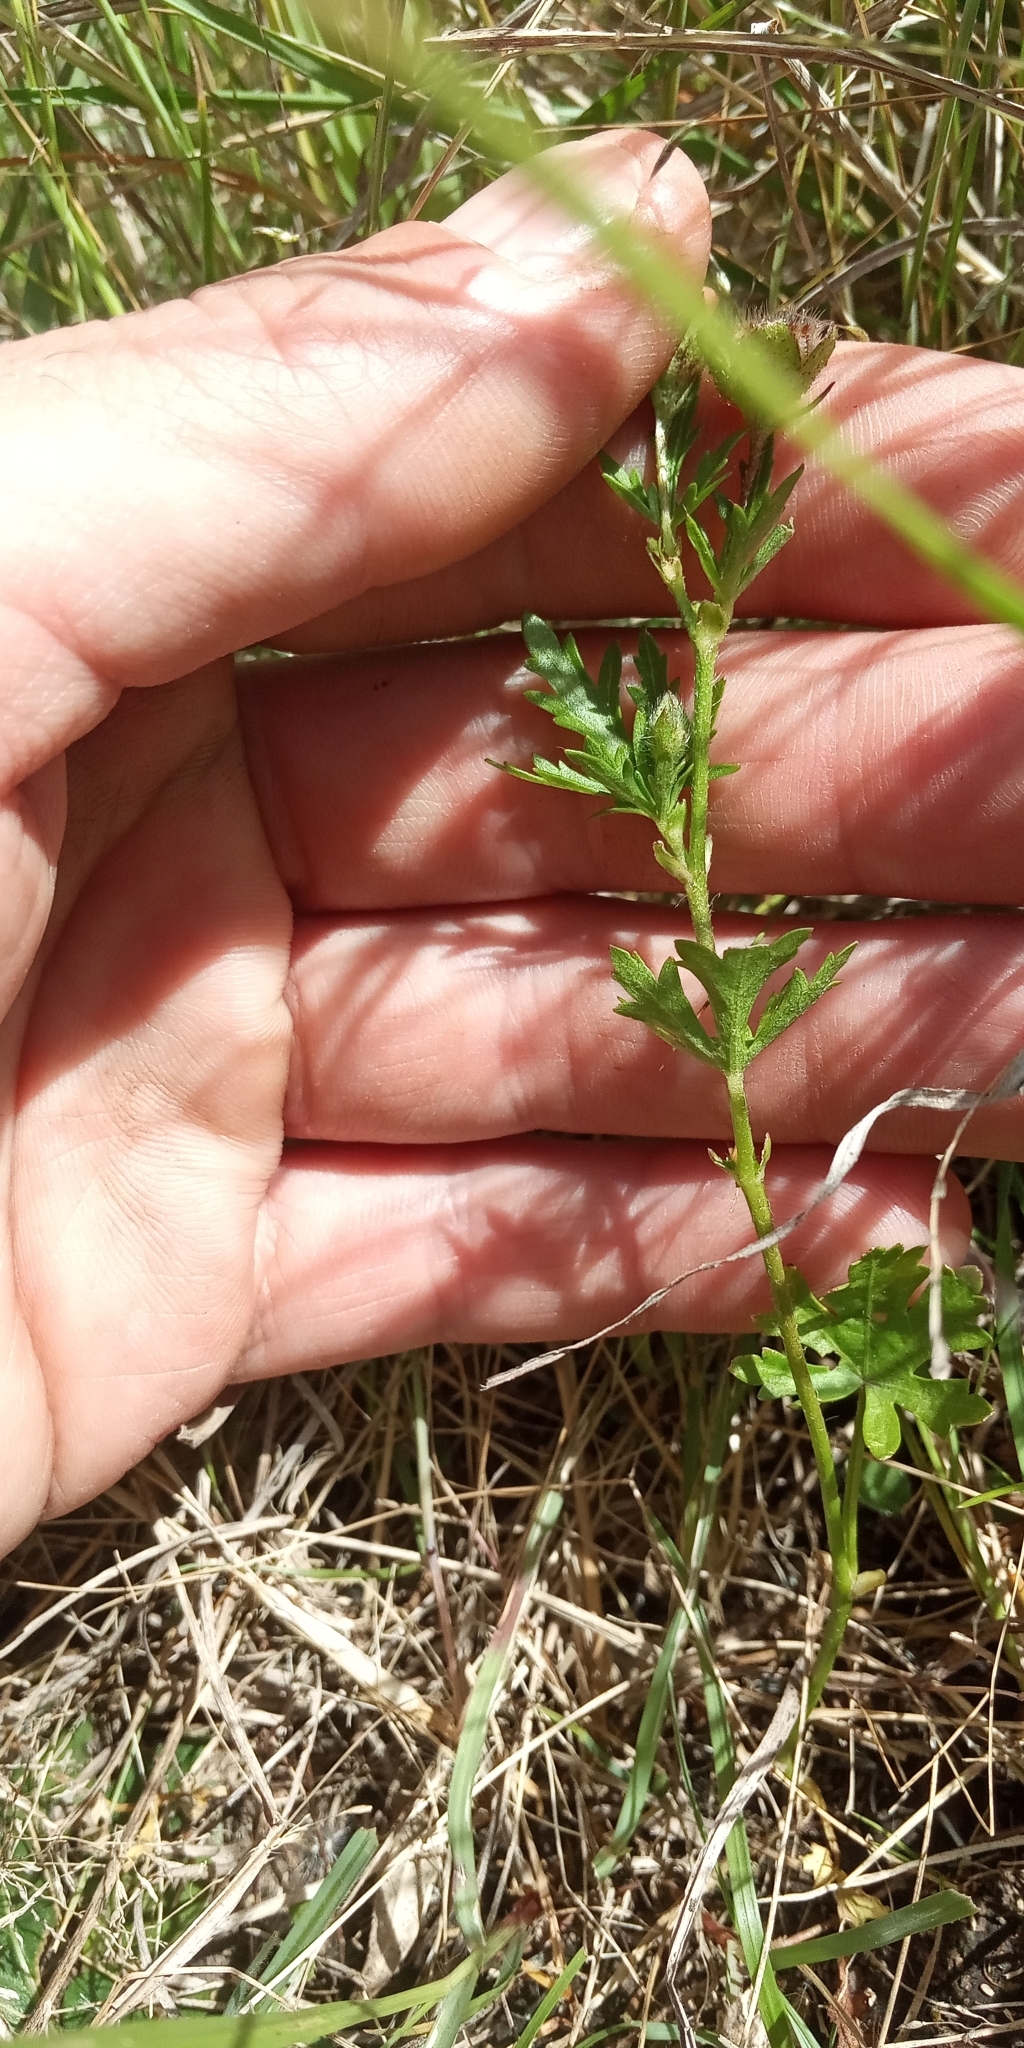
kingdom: Plantae
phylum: Tracheophyta
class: Magnoliopsida
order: Malvales
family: Malvaceae
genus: Modiola
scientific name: Modiola caroliniana
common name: Carolina bristlemallow
